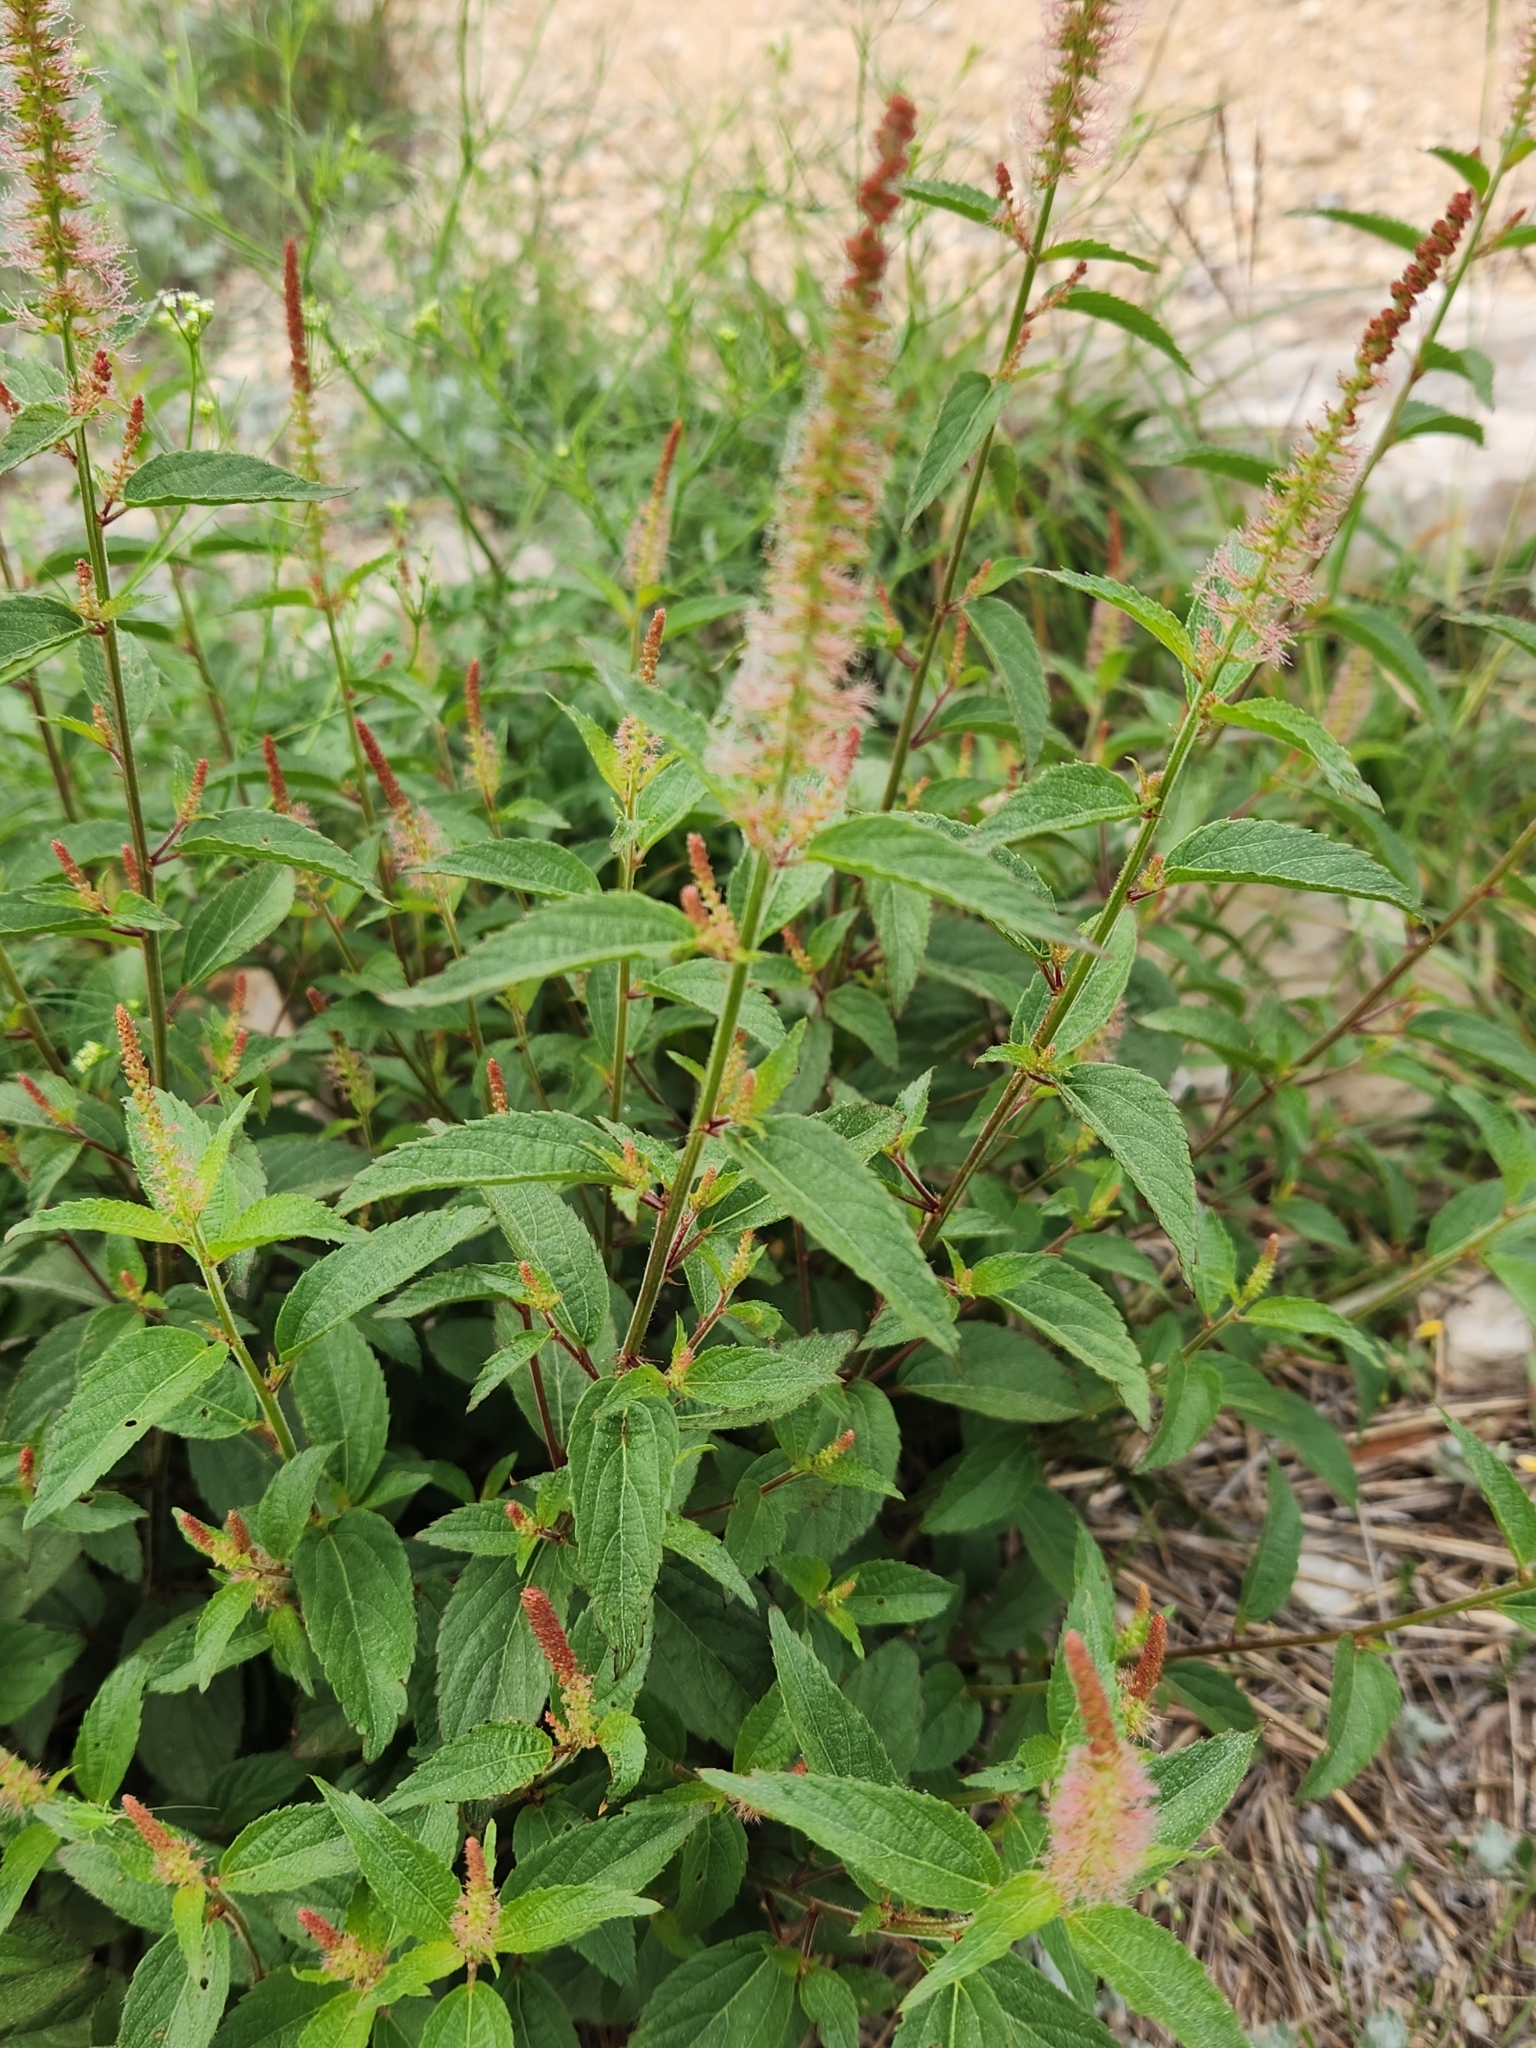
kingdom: Plantae
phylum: Tracheophyta
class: Magnoliopsida
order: Malpighiales
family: Euphorbiaceae
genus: Acalypha
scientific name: Acalypha phleoides
